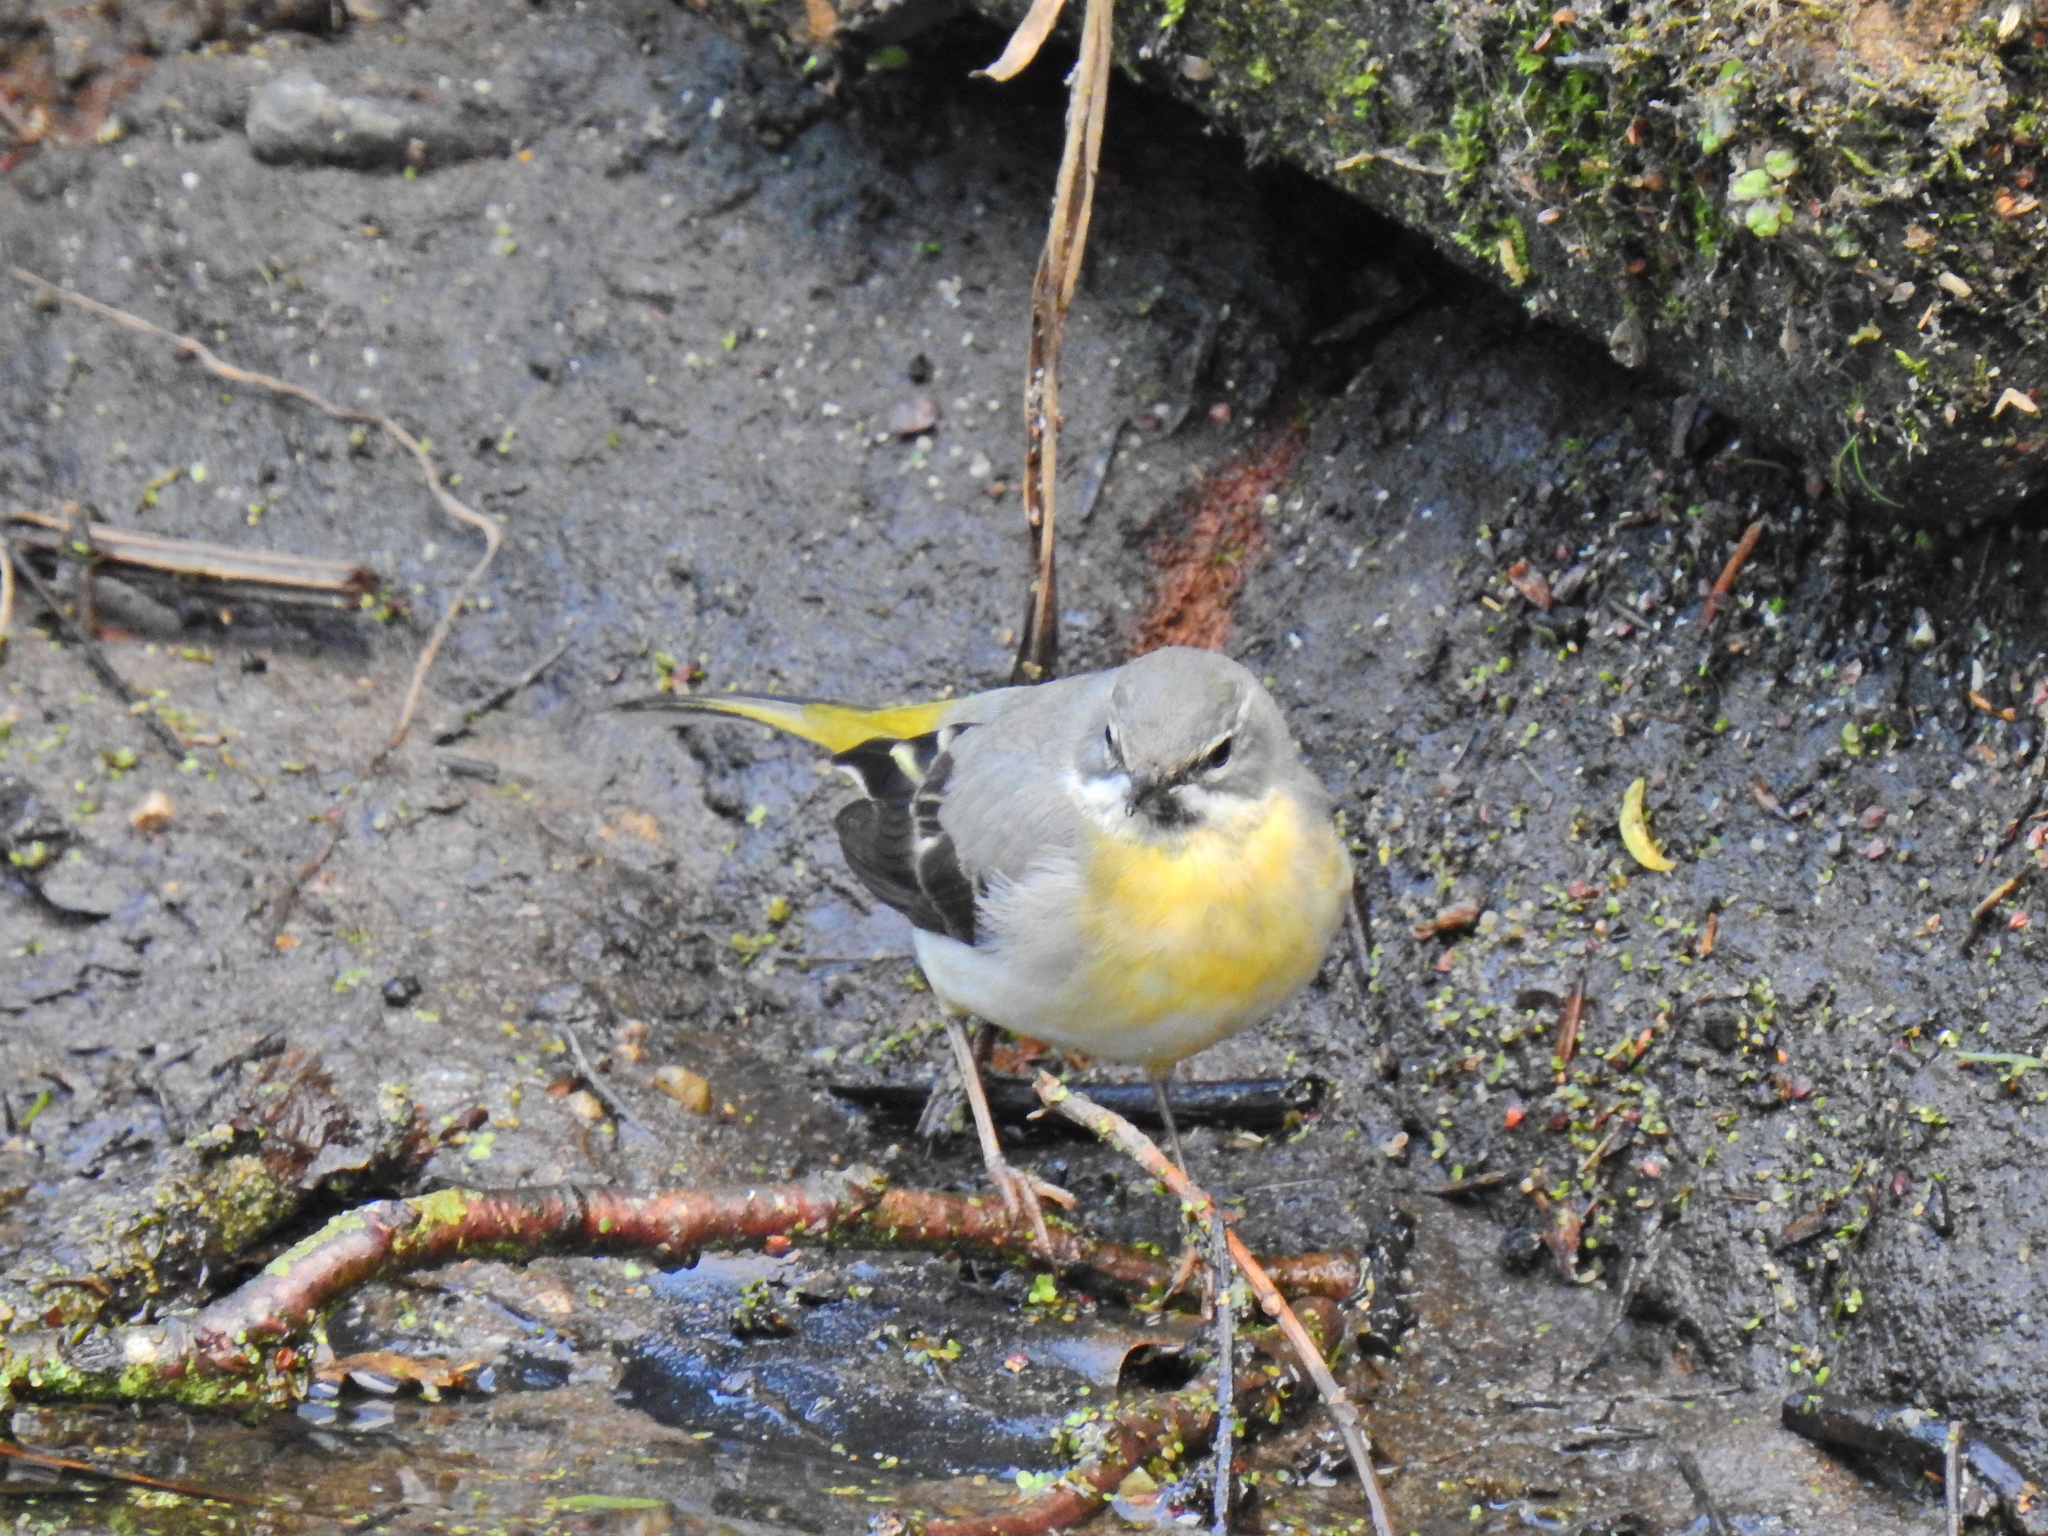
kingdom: Animalia
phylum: Chordata
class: Aves
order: Passeriformes
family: Motacillidae
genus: Motacilla
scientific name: Motacilla cinerea
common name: Grey wagtail
